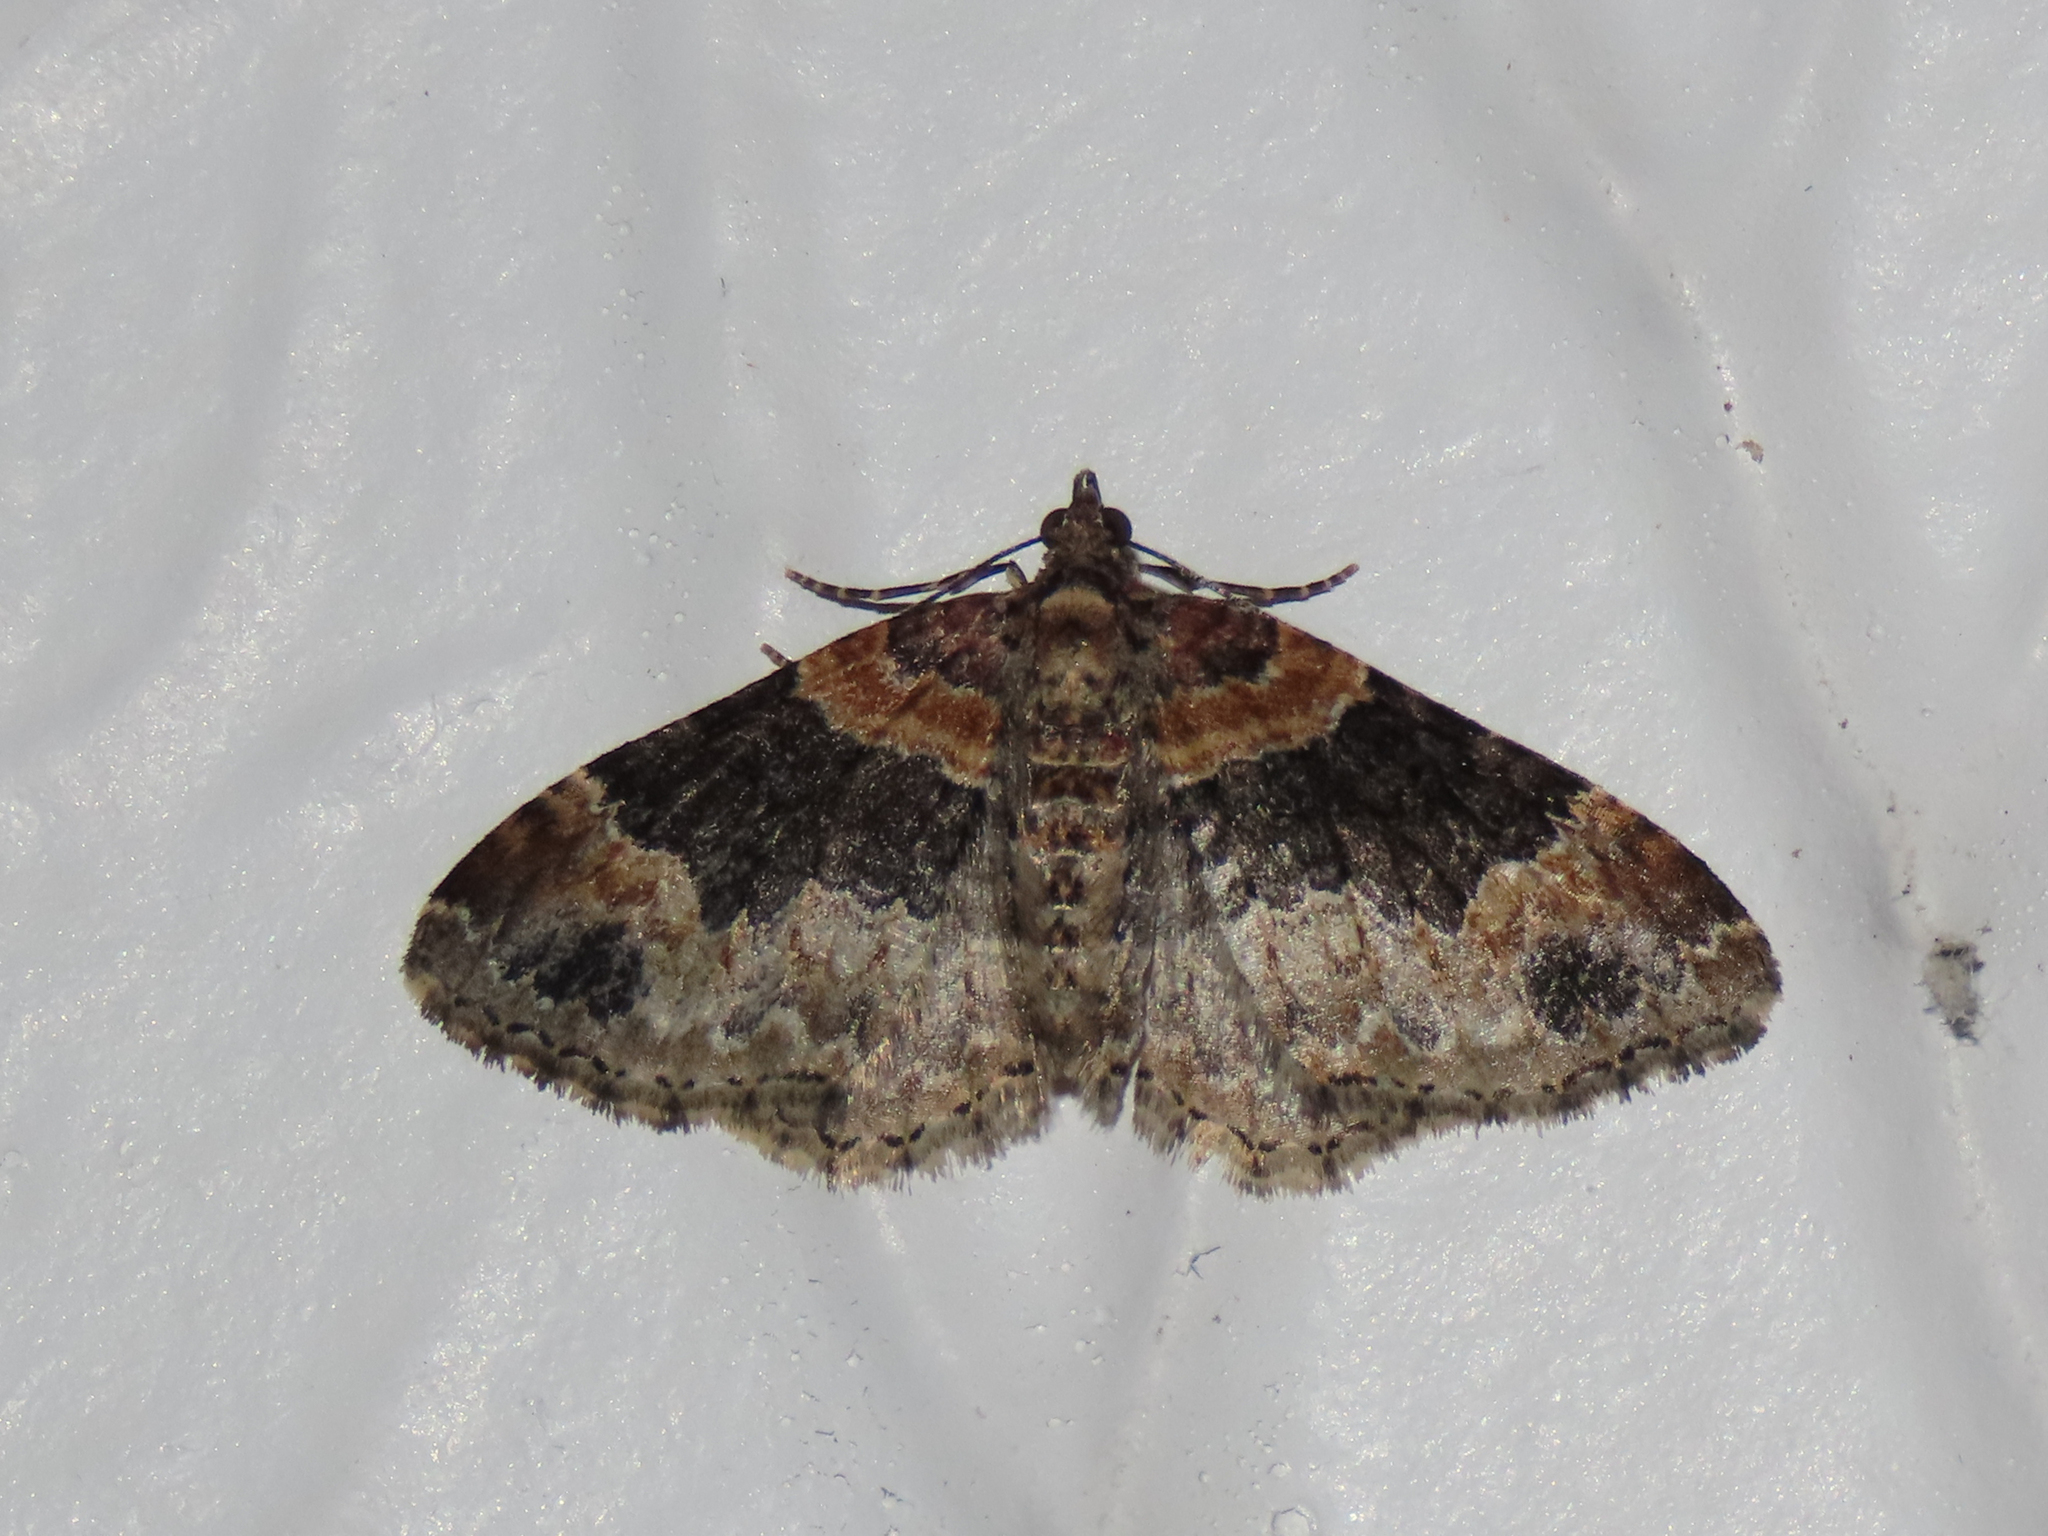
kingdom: Animalia
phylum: Arthropoda
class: Insecta
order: Lepidoptera
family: Geometridae
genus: Xanthorhoe
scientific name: Xanthorhoe ferrugata
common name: Dark-barred twin-spot carpet
